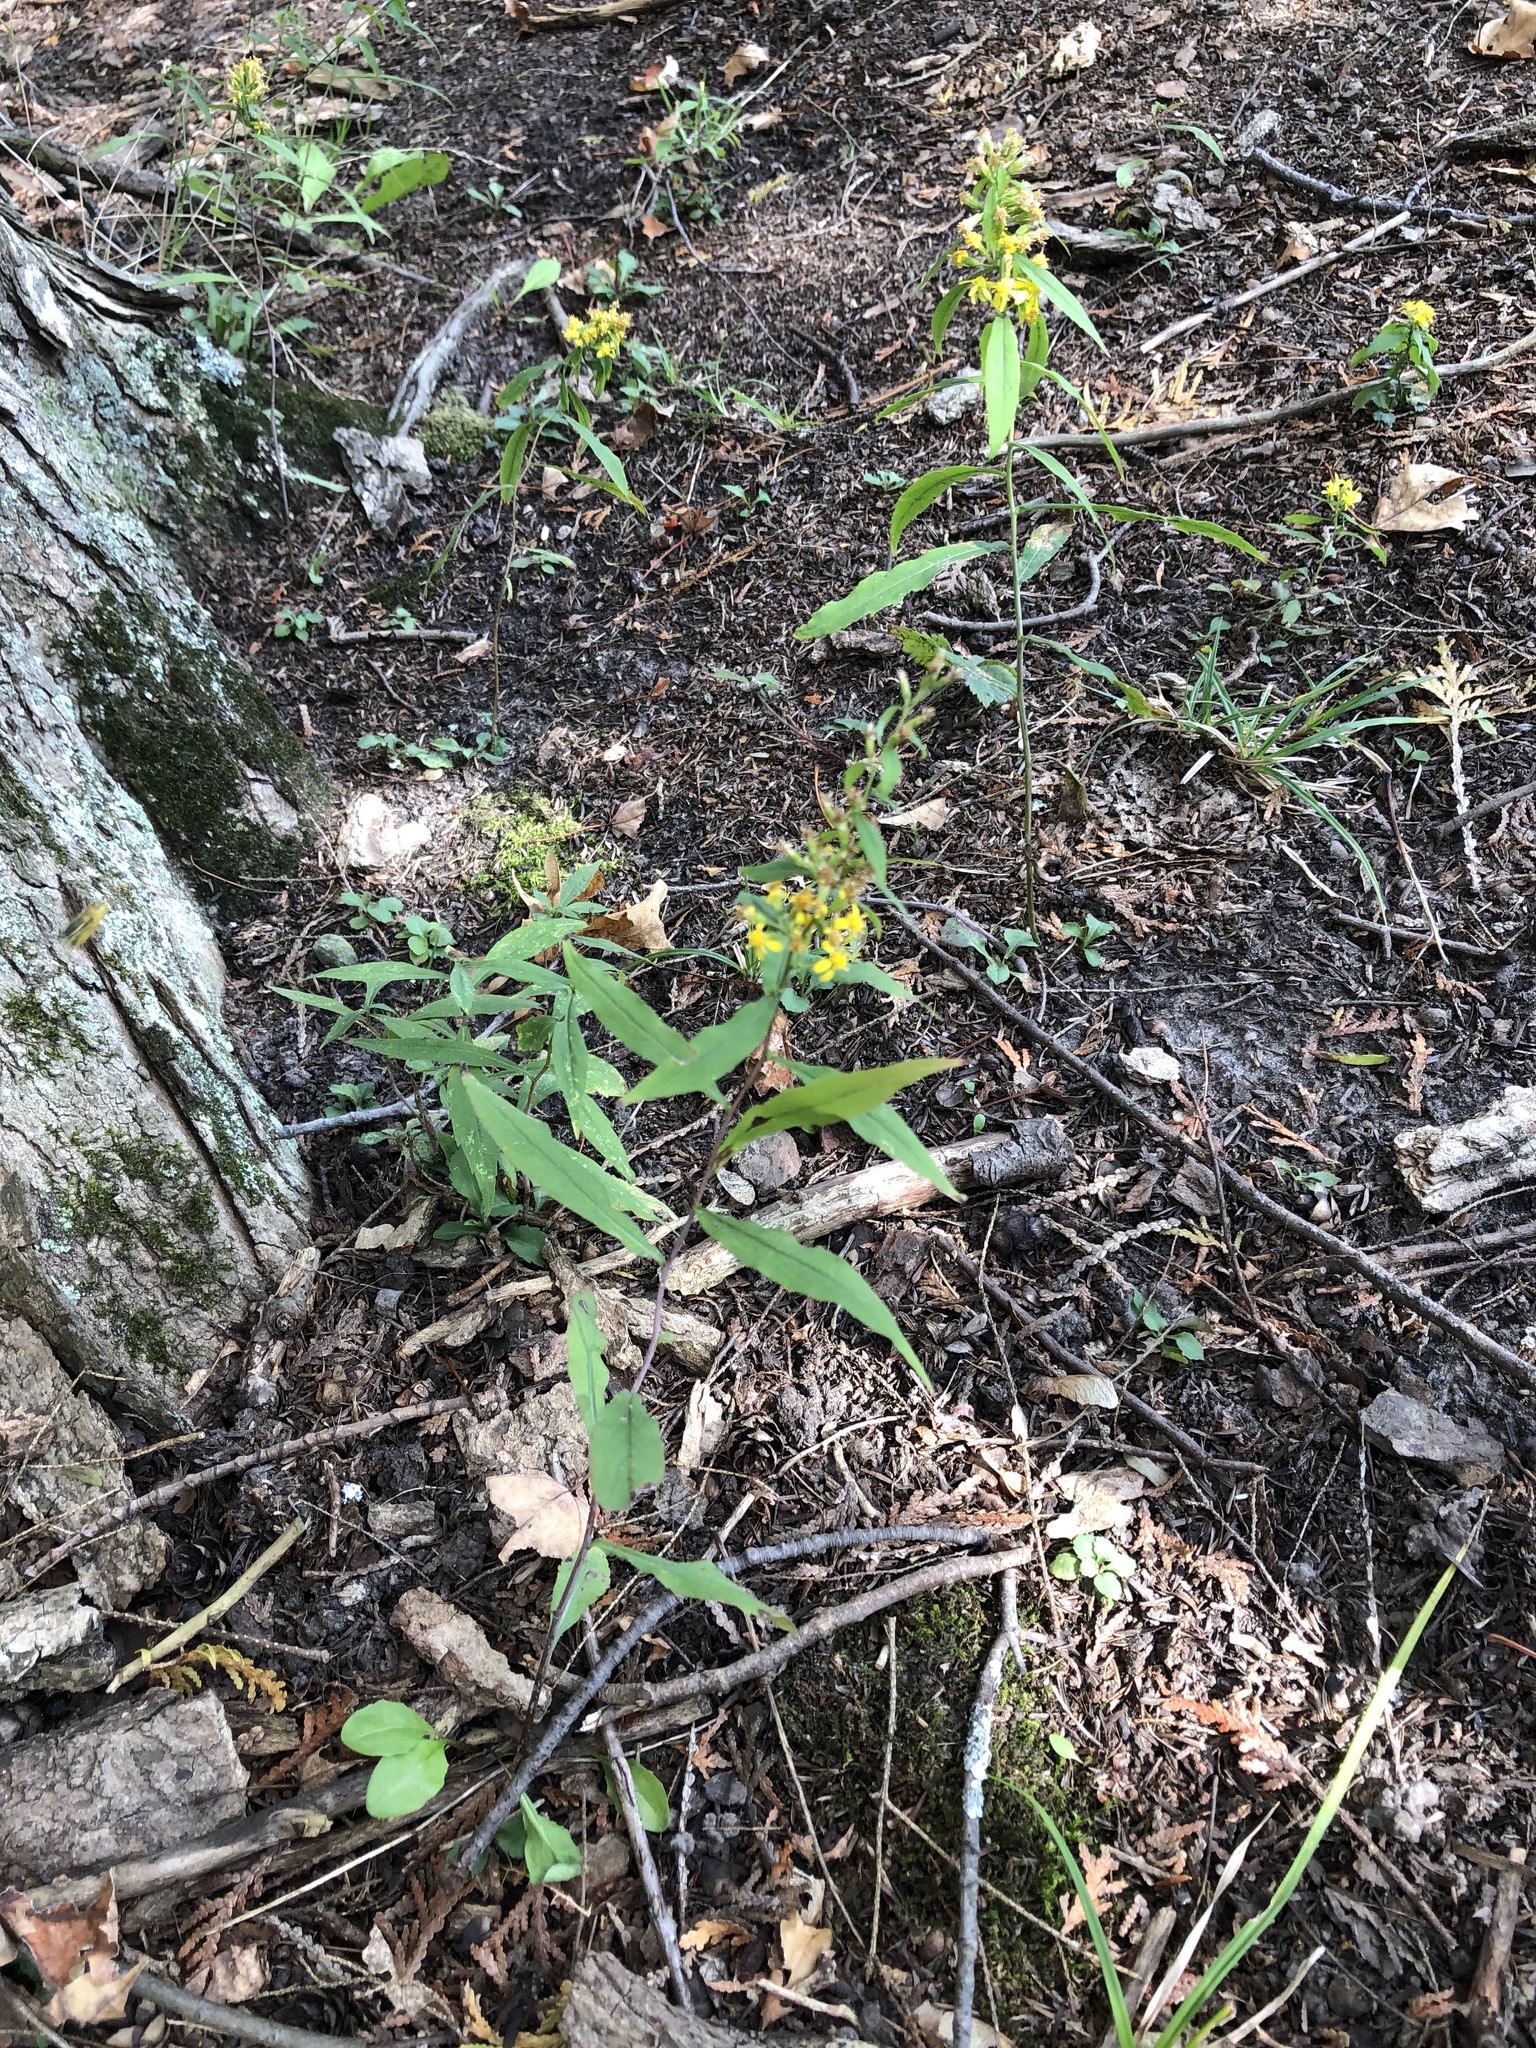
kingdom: Plantae
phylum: Tracheophyta
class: Magnoliopsida
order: Asterales
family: Asteraceae
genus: Solidago
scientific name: Solidago caesia
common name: Woodland goldenrod
